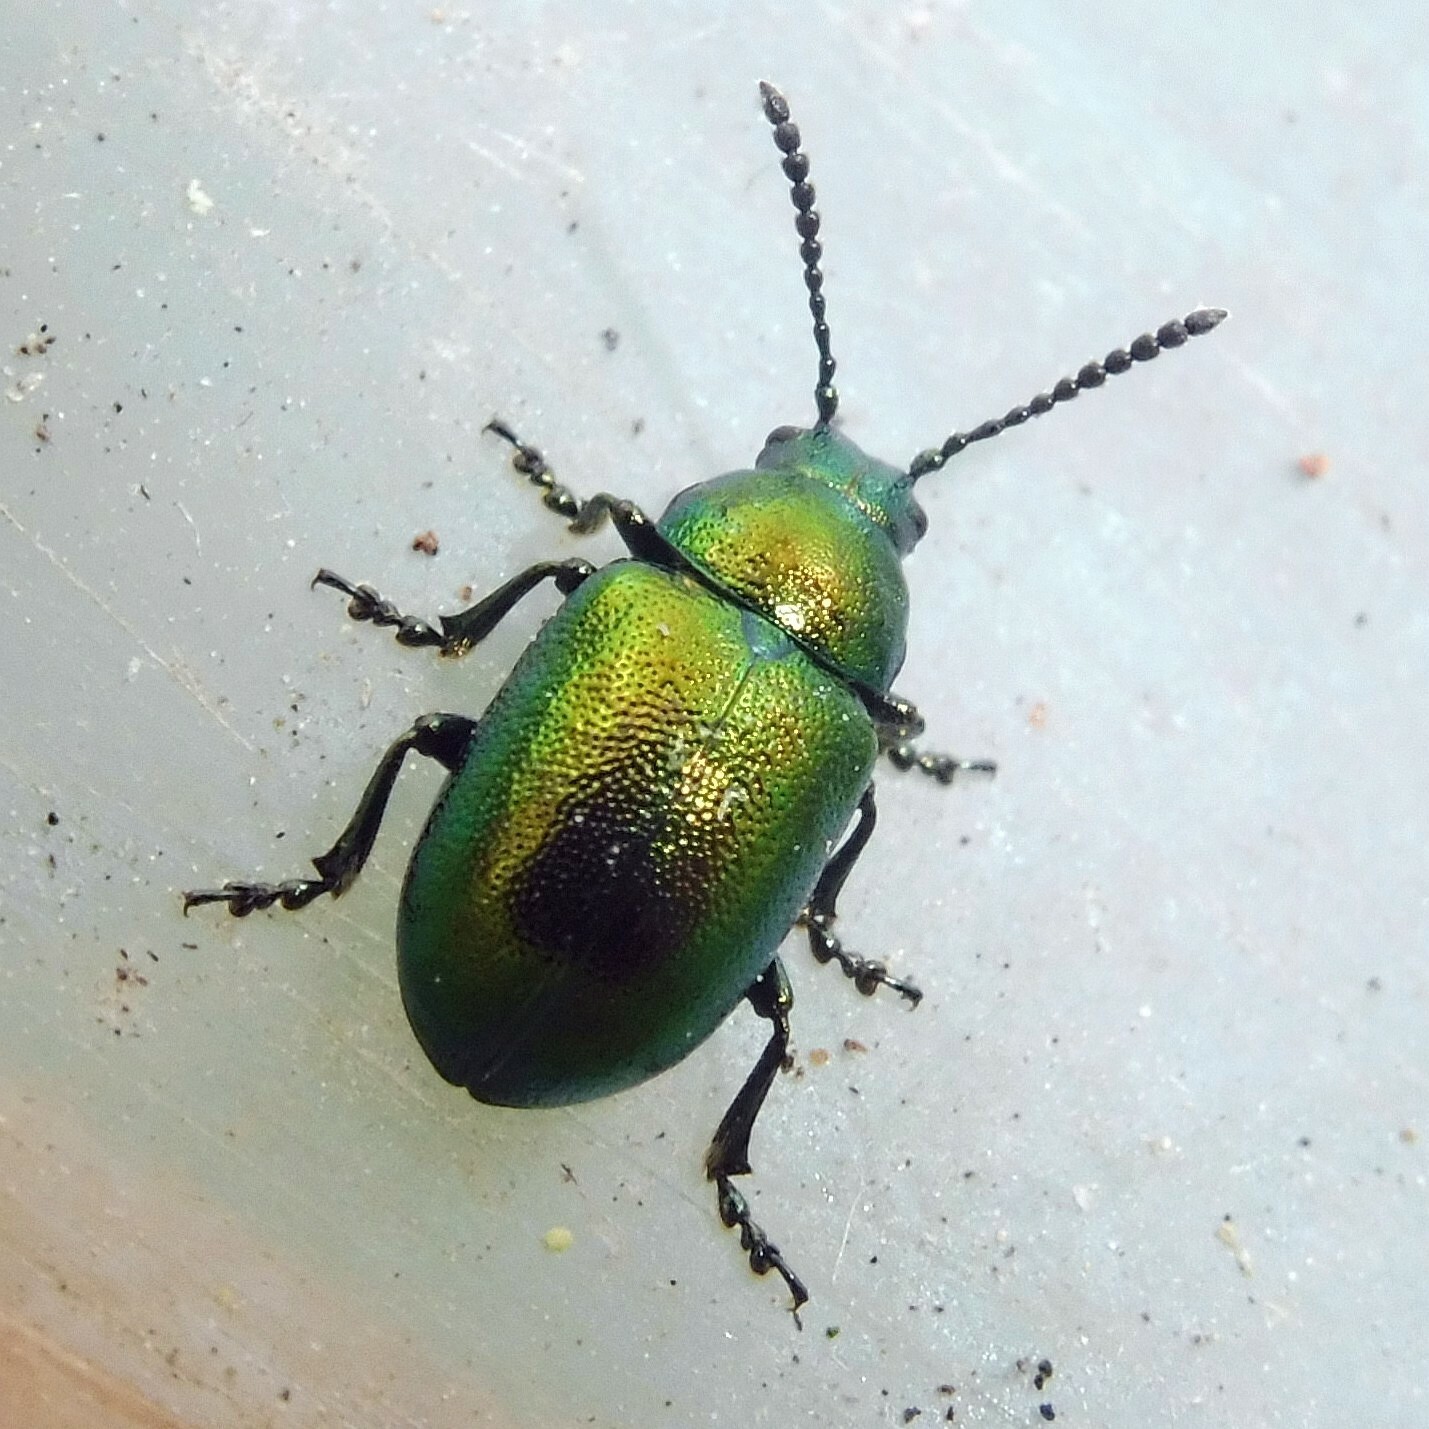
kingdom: Animalia
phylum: Arthropoda
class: Insecta
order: Coleoptera
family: Chrysomelidae
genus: Gastrophysa
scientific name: Gastrophysa viridula
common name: Green dock beetle
